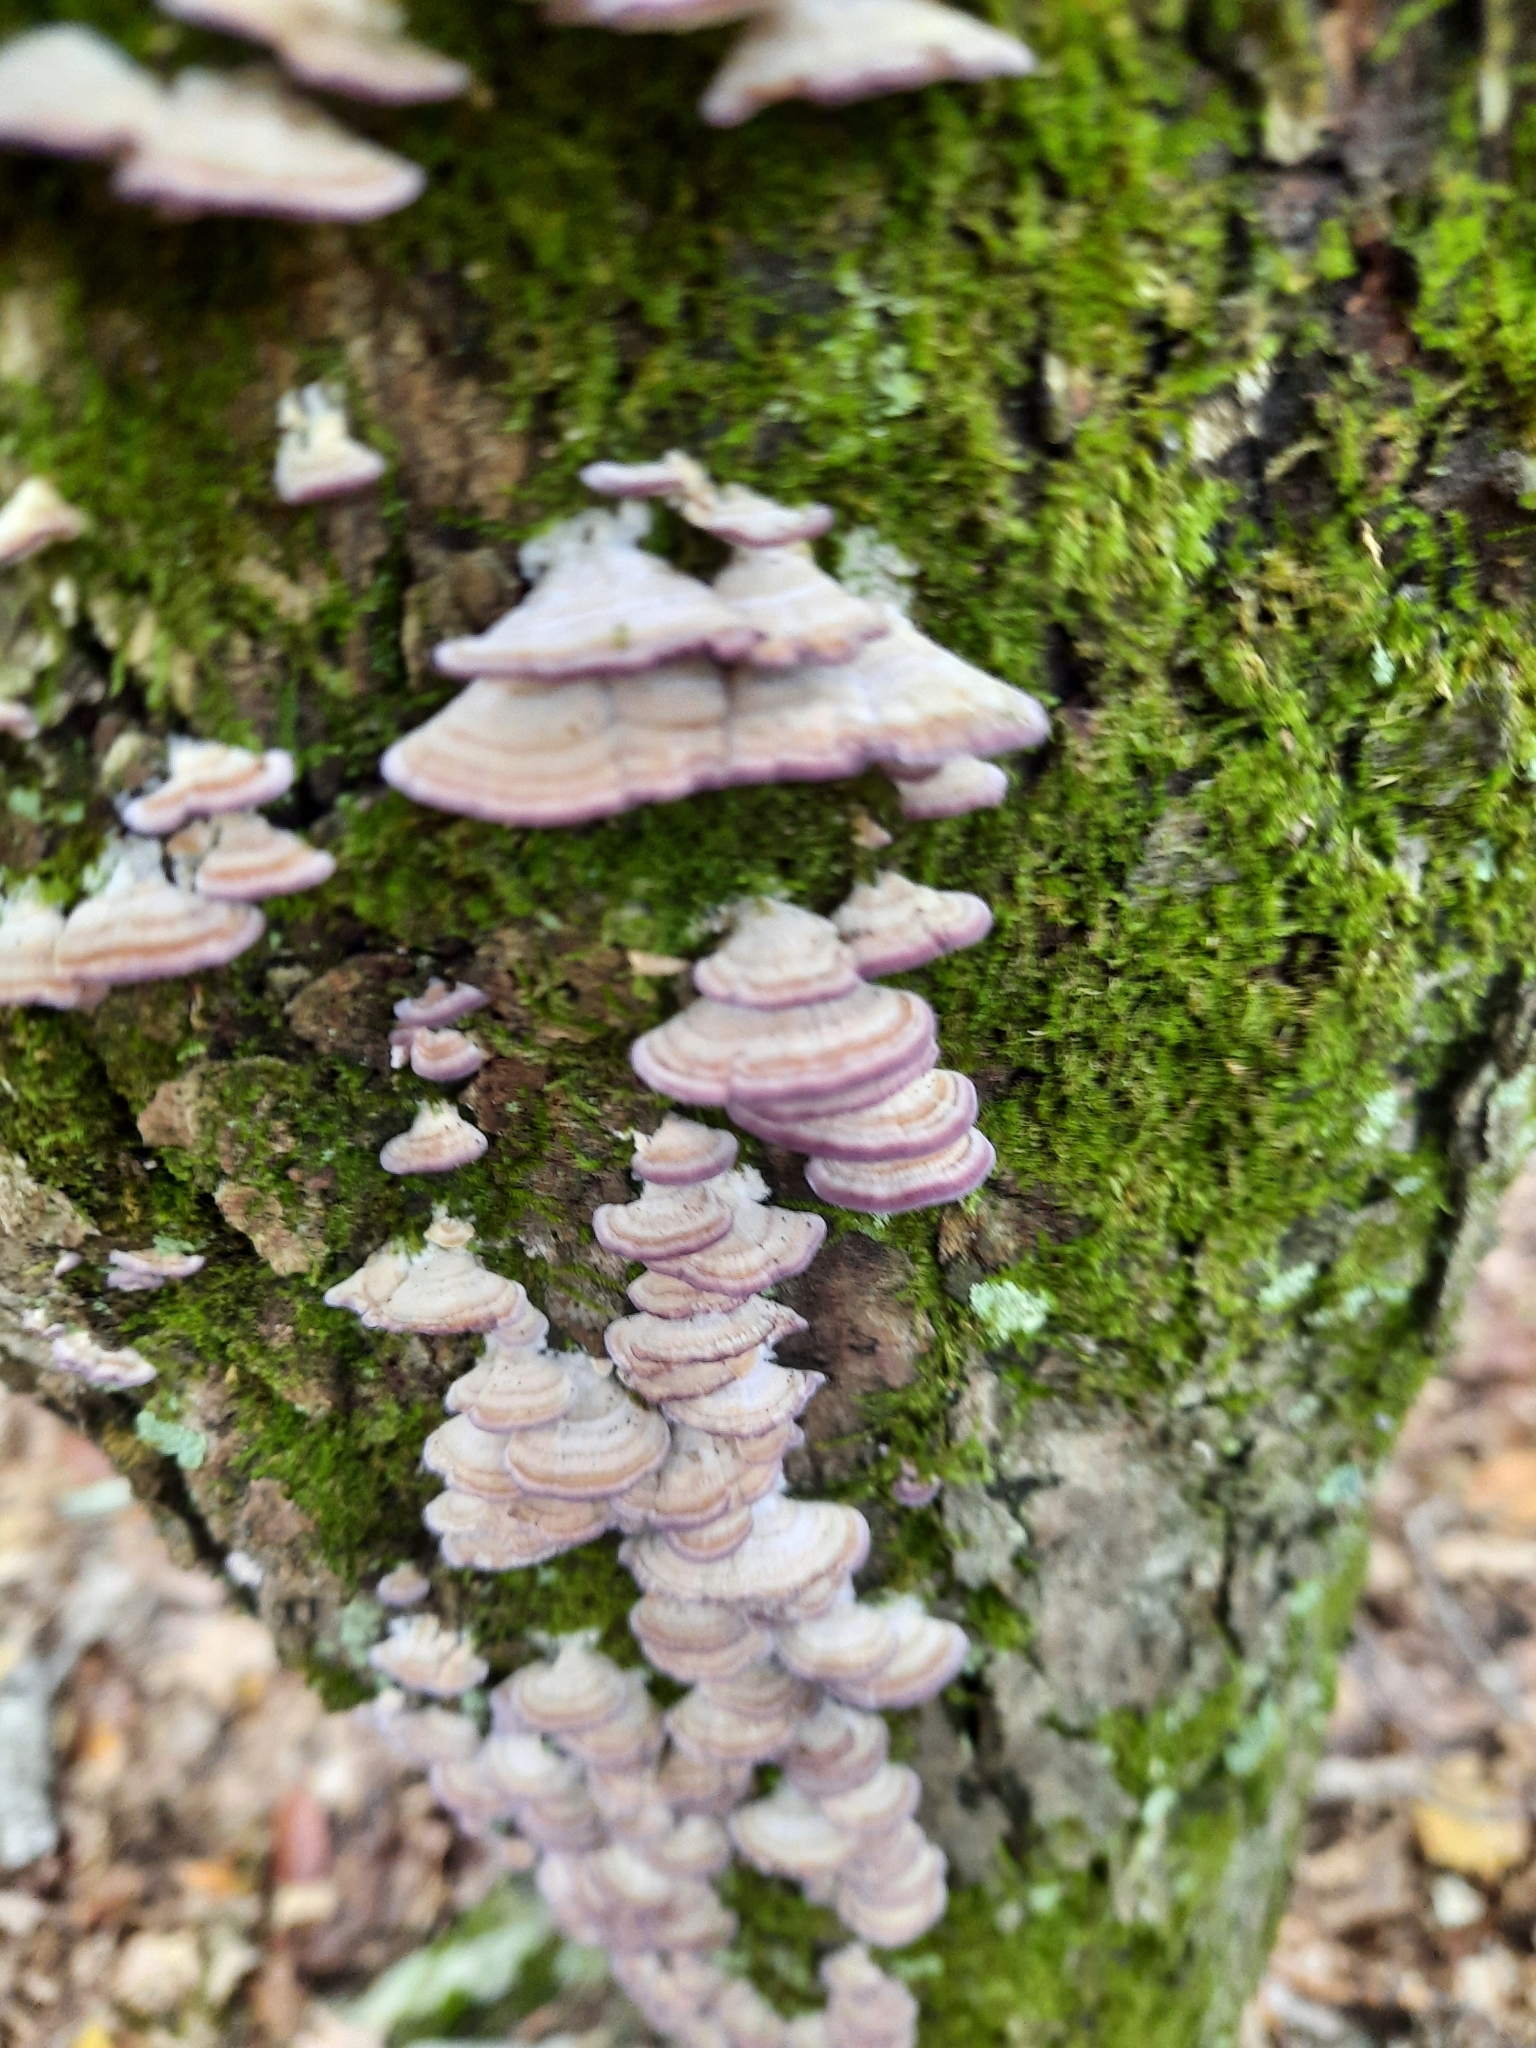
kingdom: Fungi
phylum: Basidiomycota
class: Agaricomycetes
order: Hymenochaetales
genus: Trichaptum
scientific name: Trichaptum biforme
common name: Violet-toothed polypore
